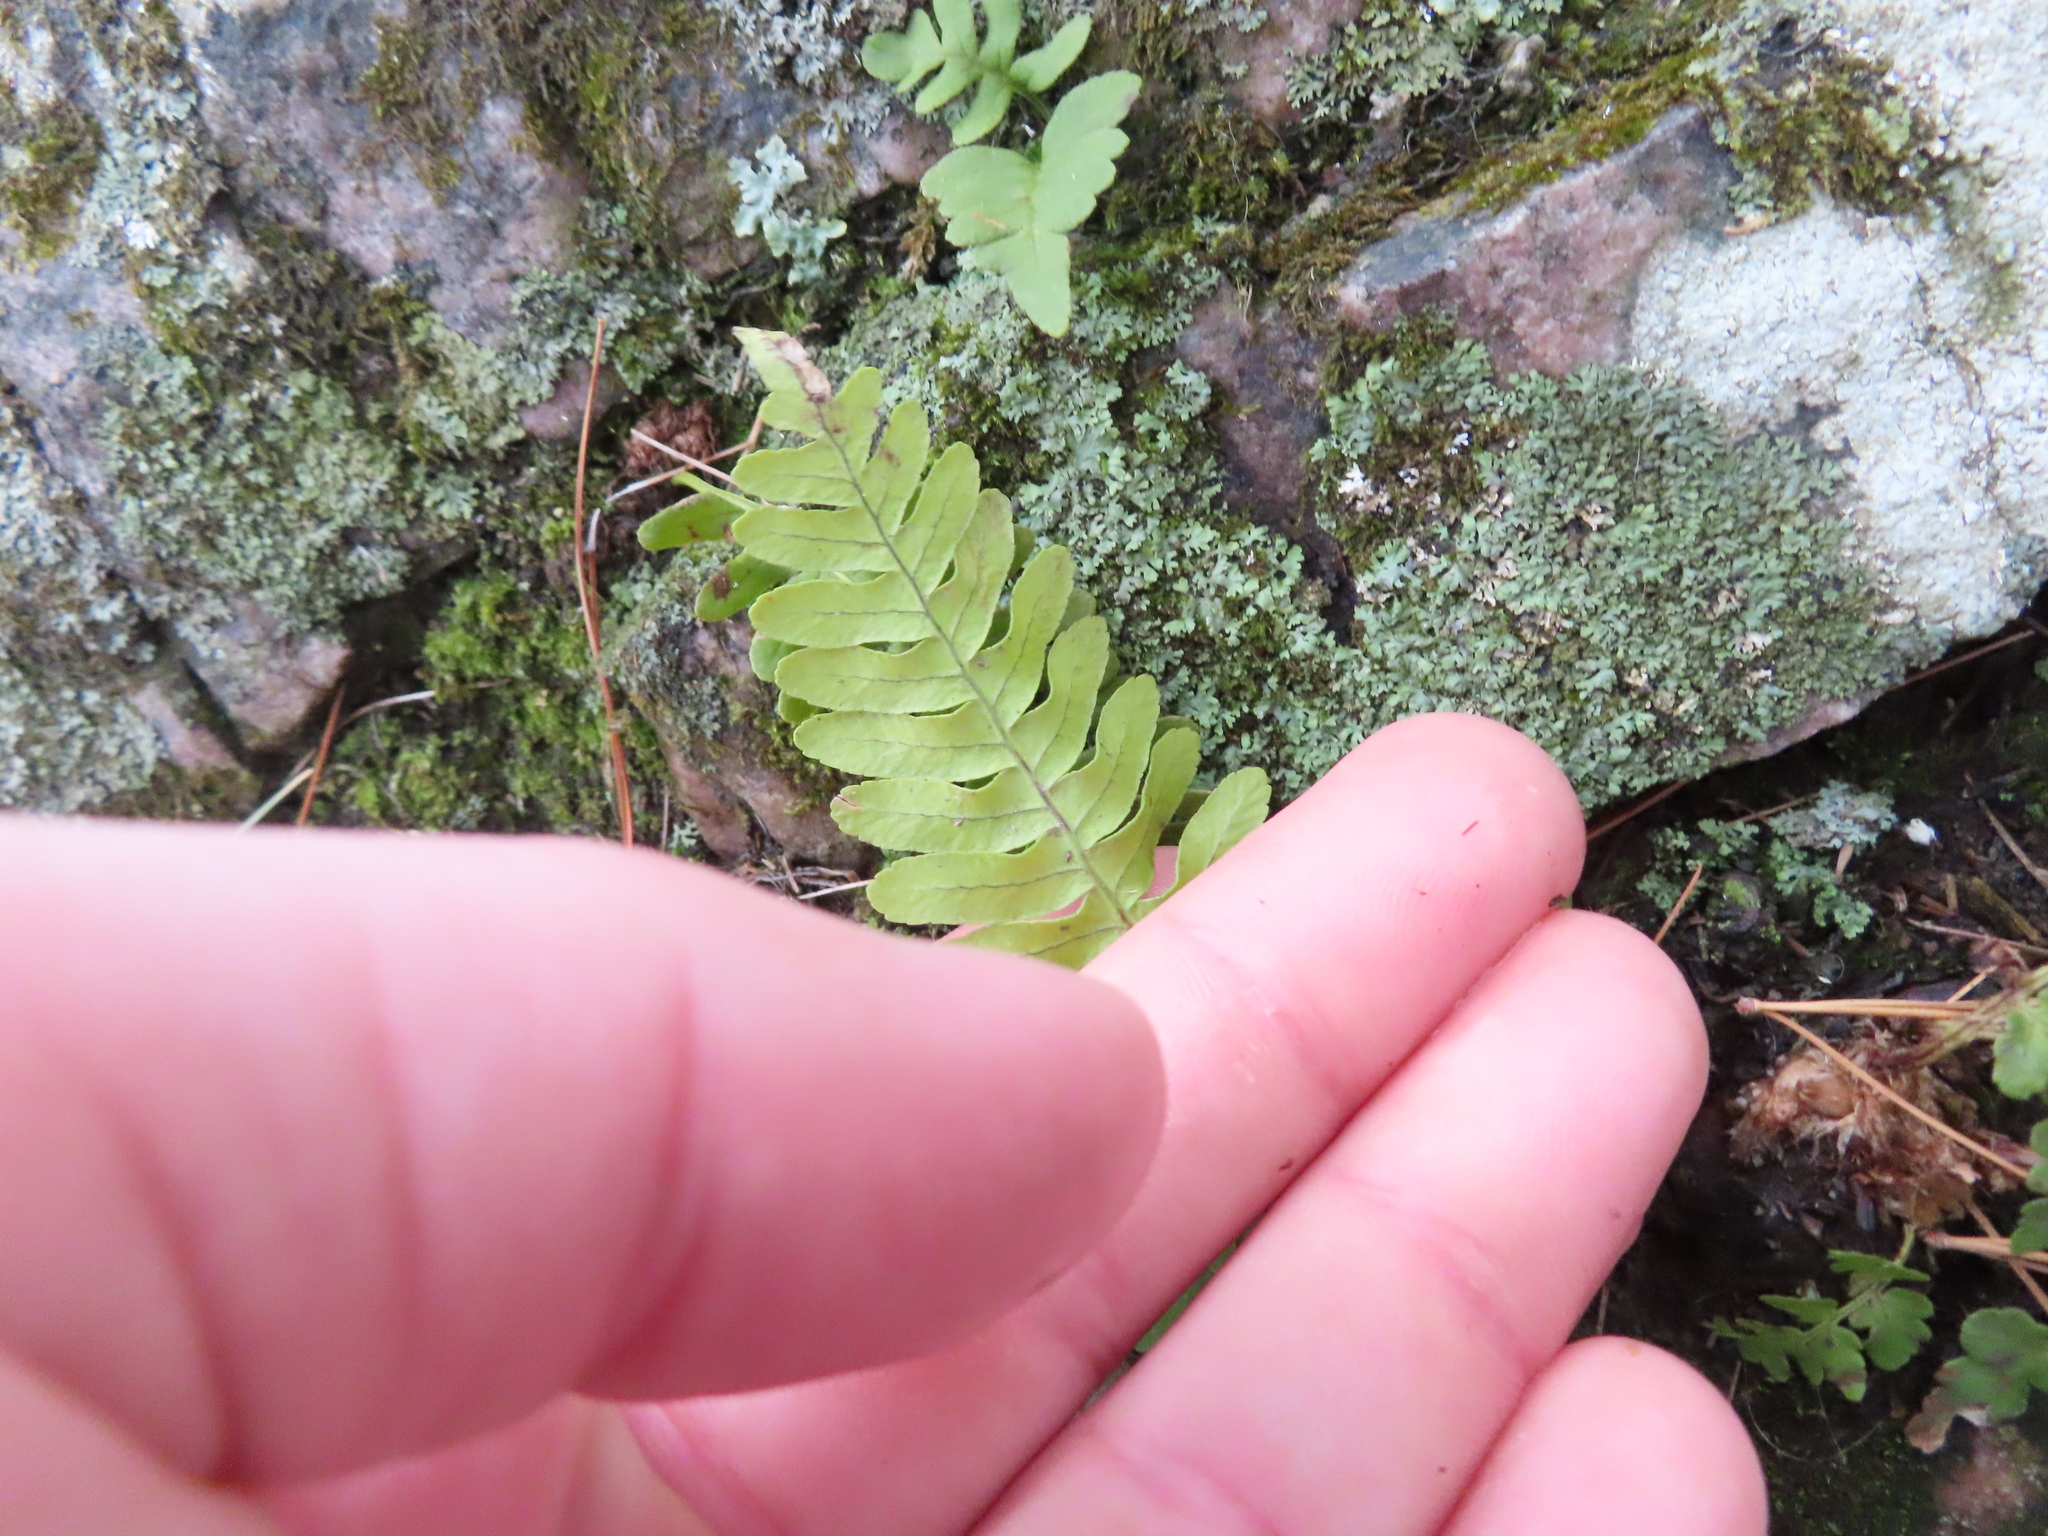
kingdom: Plantae
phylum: Tracheophyta
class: Polypodiopsida
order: Polypodiales
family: Polypodiaceae
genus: Polypodium
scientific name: Polypodium virginianum
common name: American wall fern
